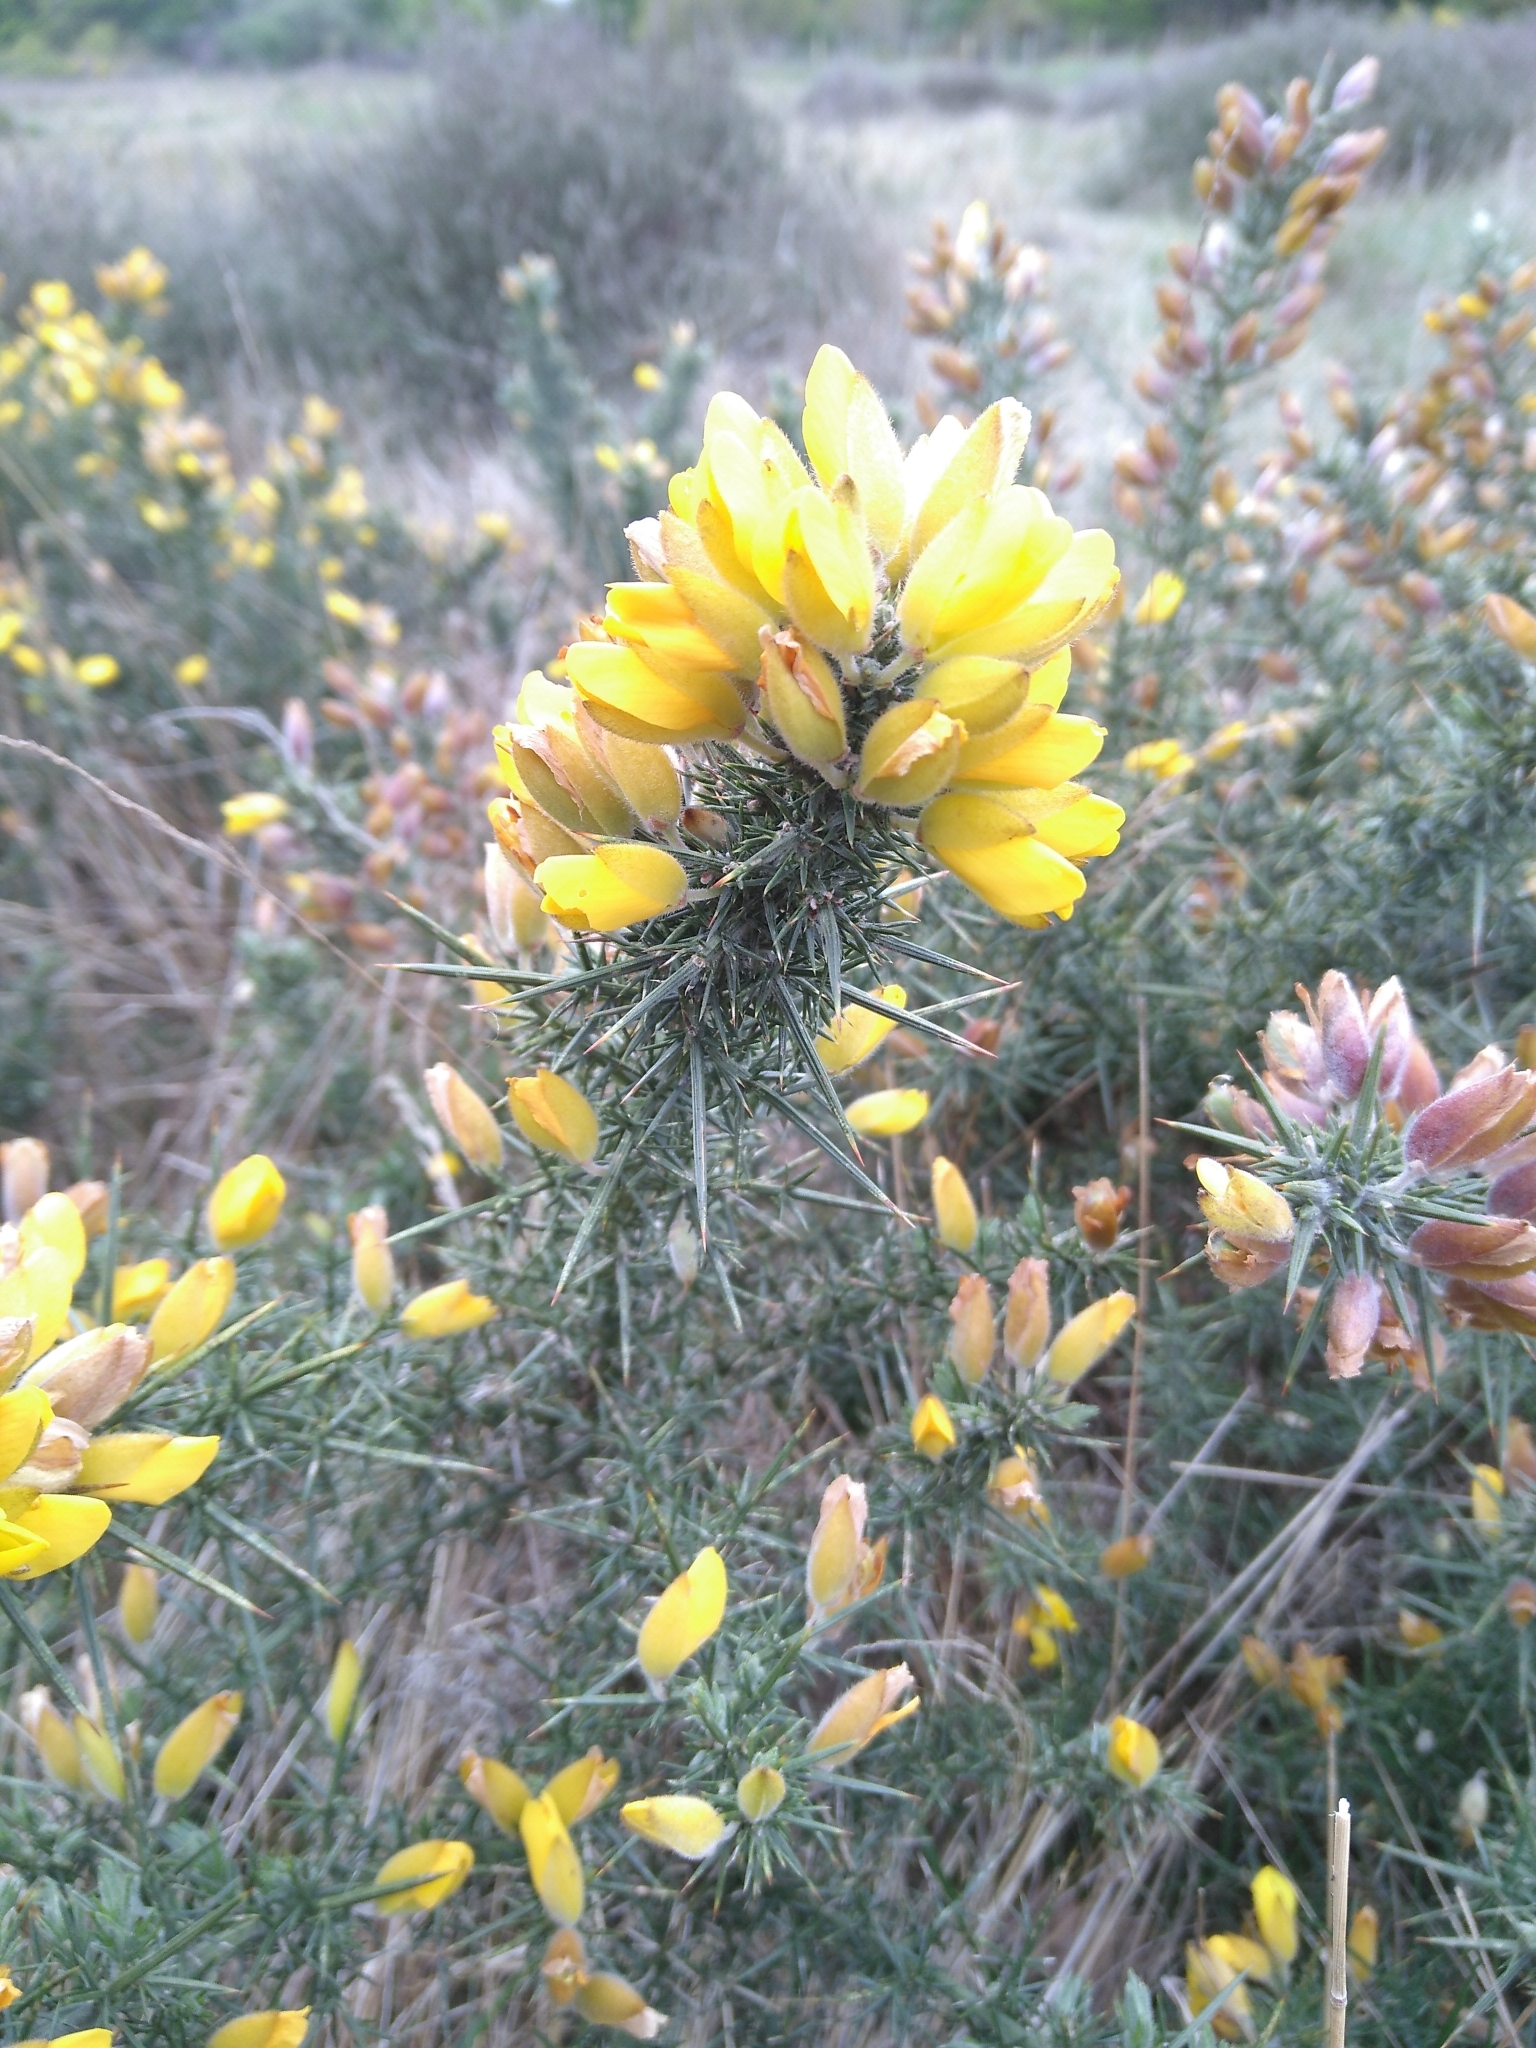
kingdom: Plantae
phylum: Tracheophyta
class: Magnoliopsida
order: Fabales
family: Fabaceae
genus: Ulex
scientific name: Ulex europaeus
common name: Common gorse
